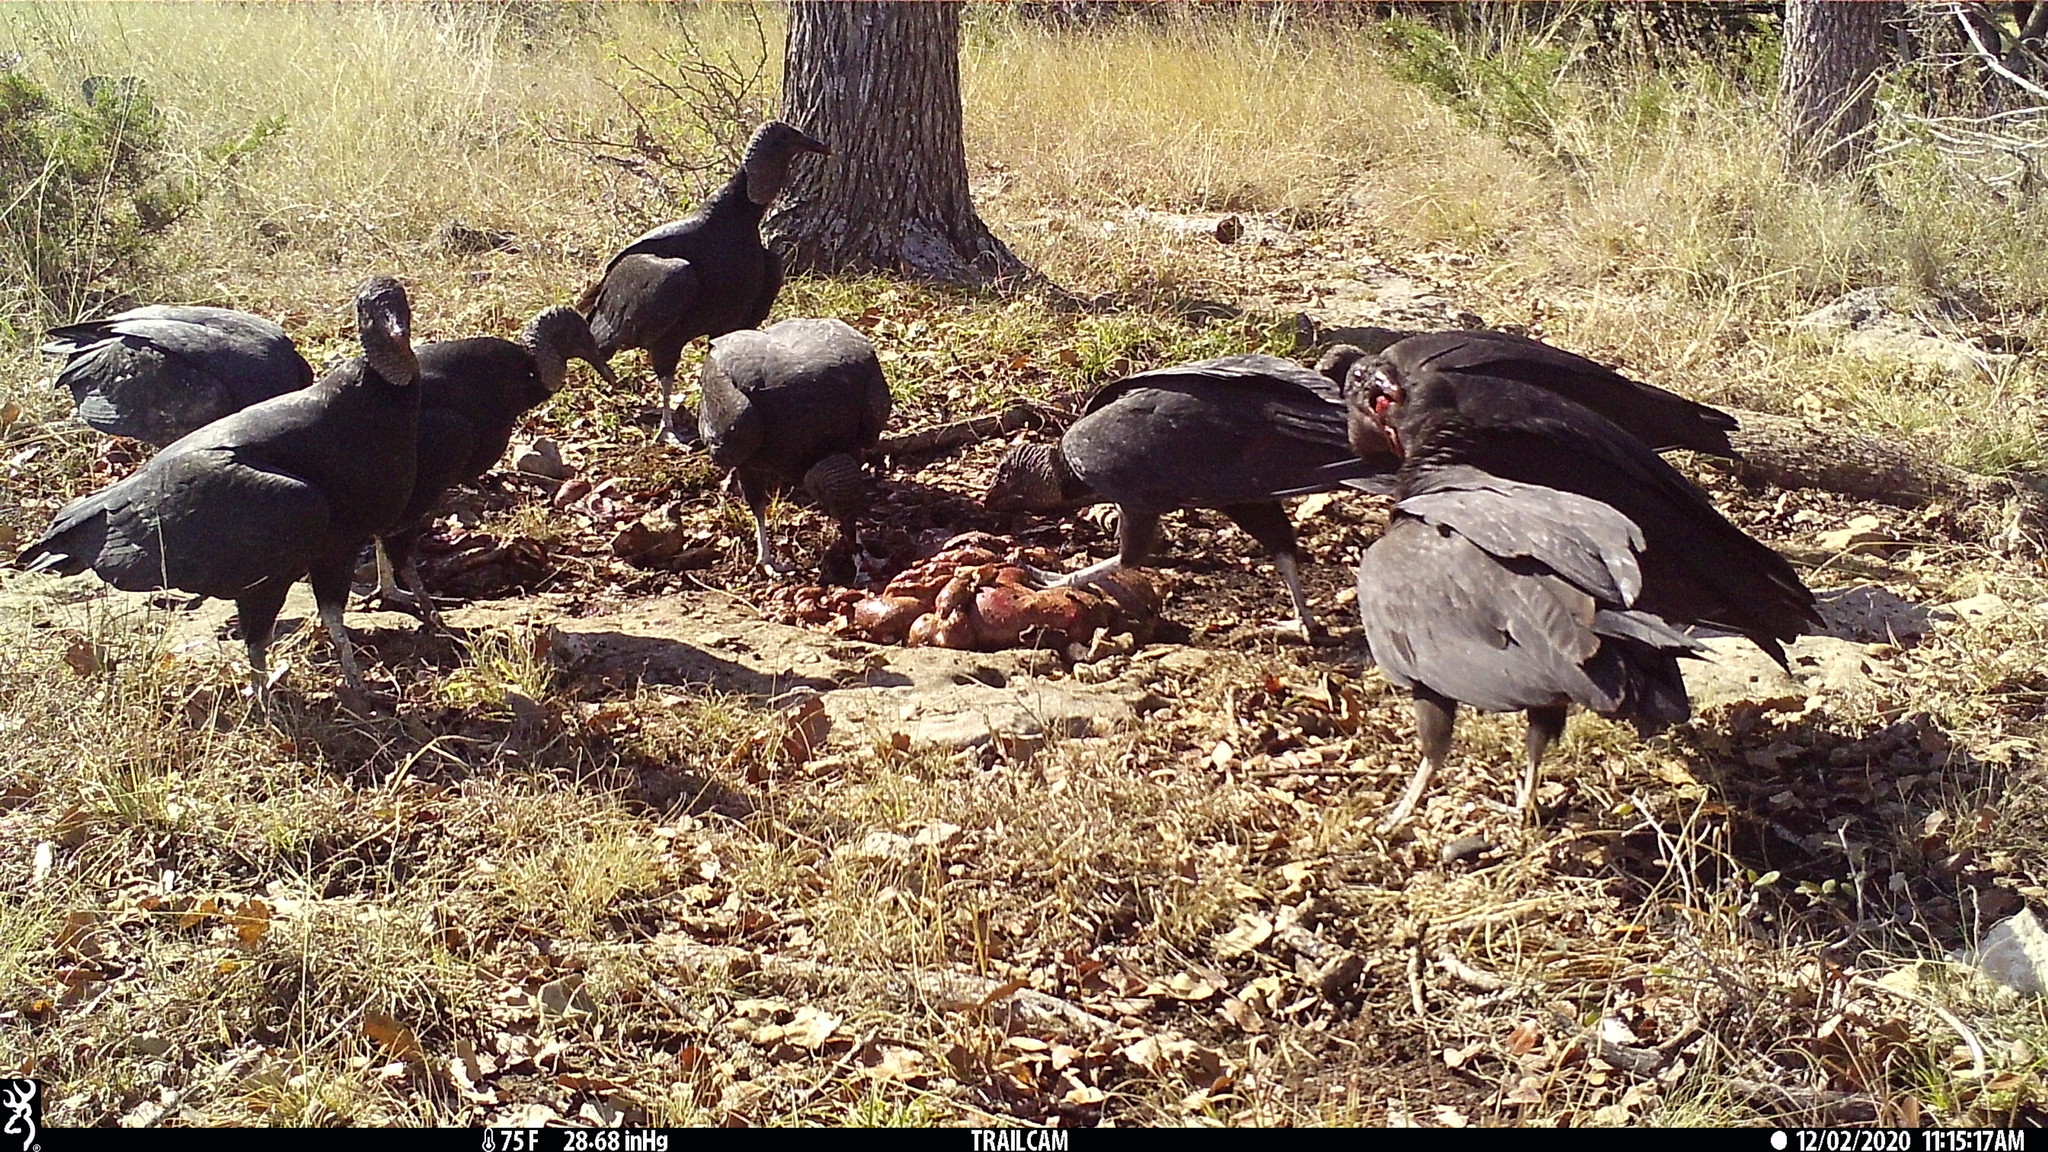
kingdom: Animalia
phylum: Chordata
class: Aves
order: Accipitriformes
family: Cathartidae
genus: Coragyps
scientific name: Coragyps atratus
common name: Black vulture
